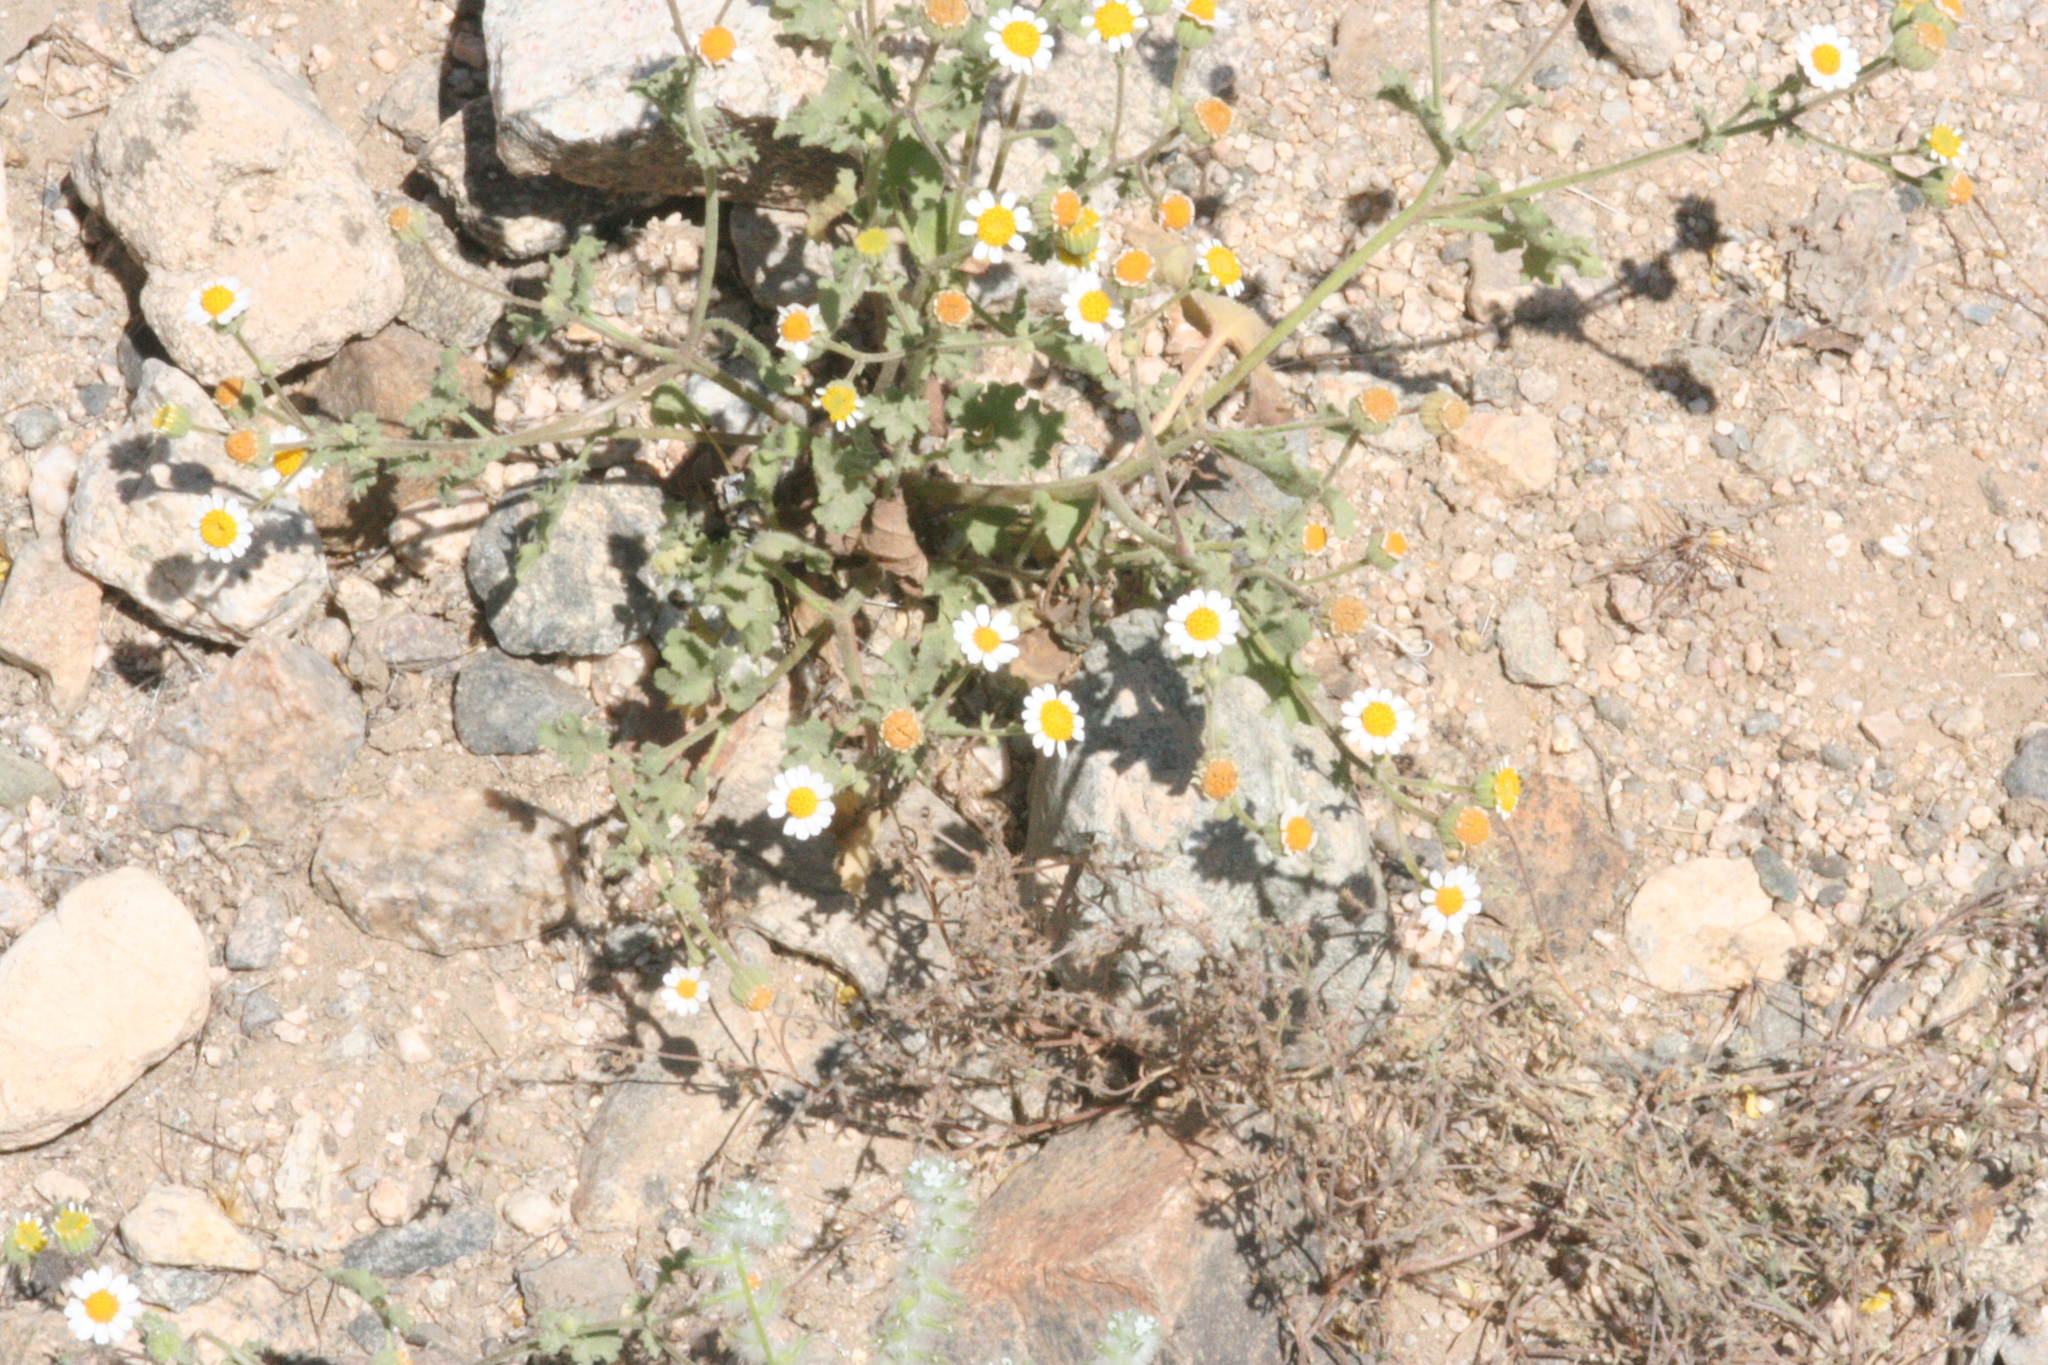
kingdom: Plantae
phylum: Tracheophyta
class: Magnoliopsida
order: Asterales
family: Asteraceae
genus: Laphamia
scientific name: Laphamia emoryi
